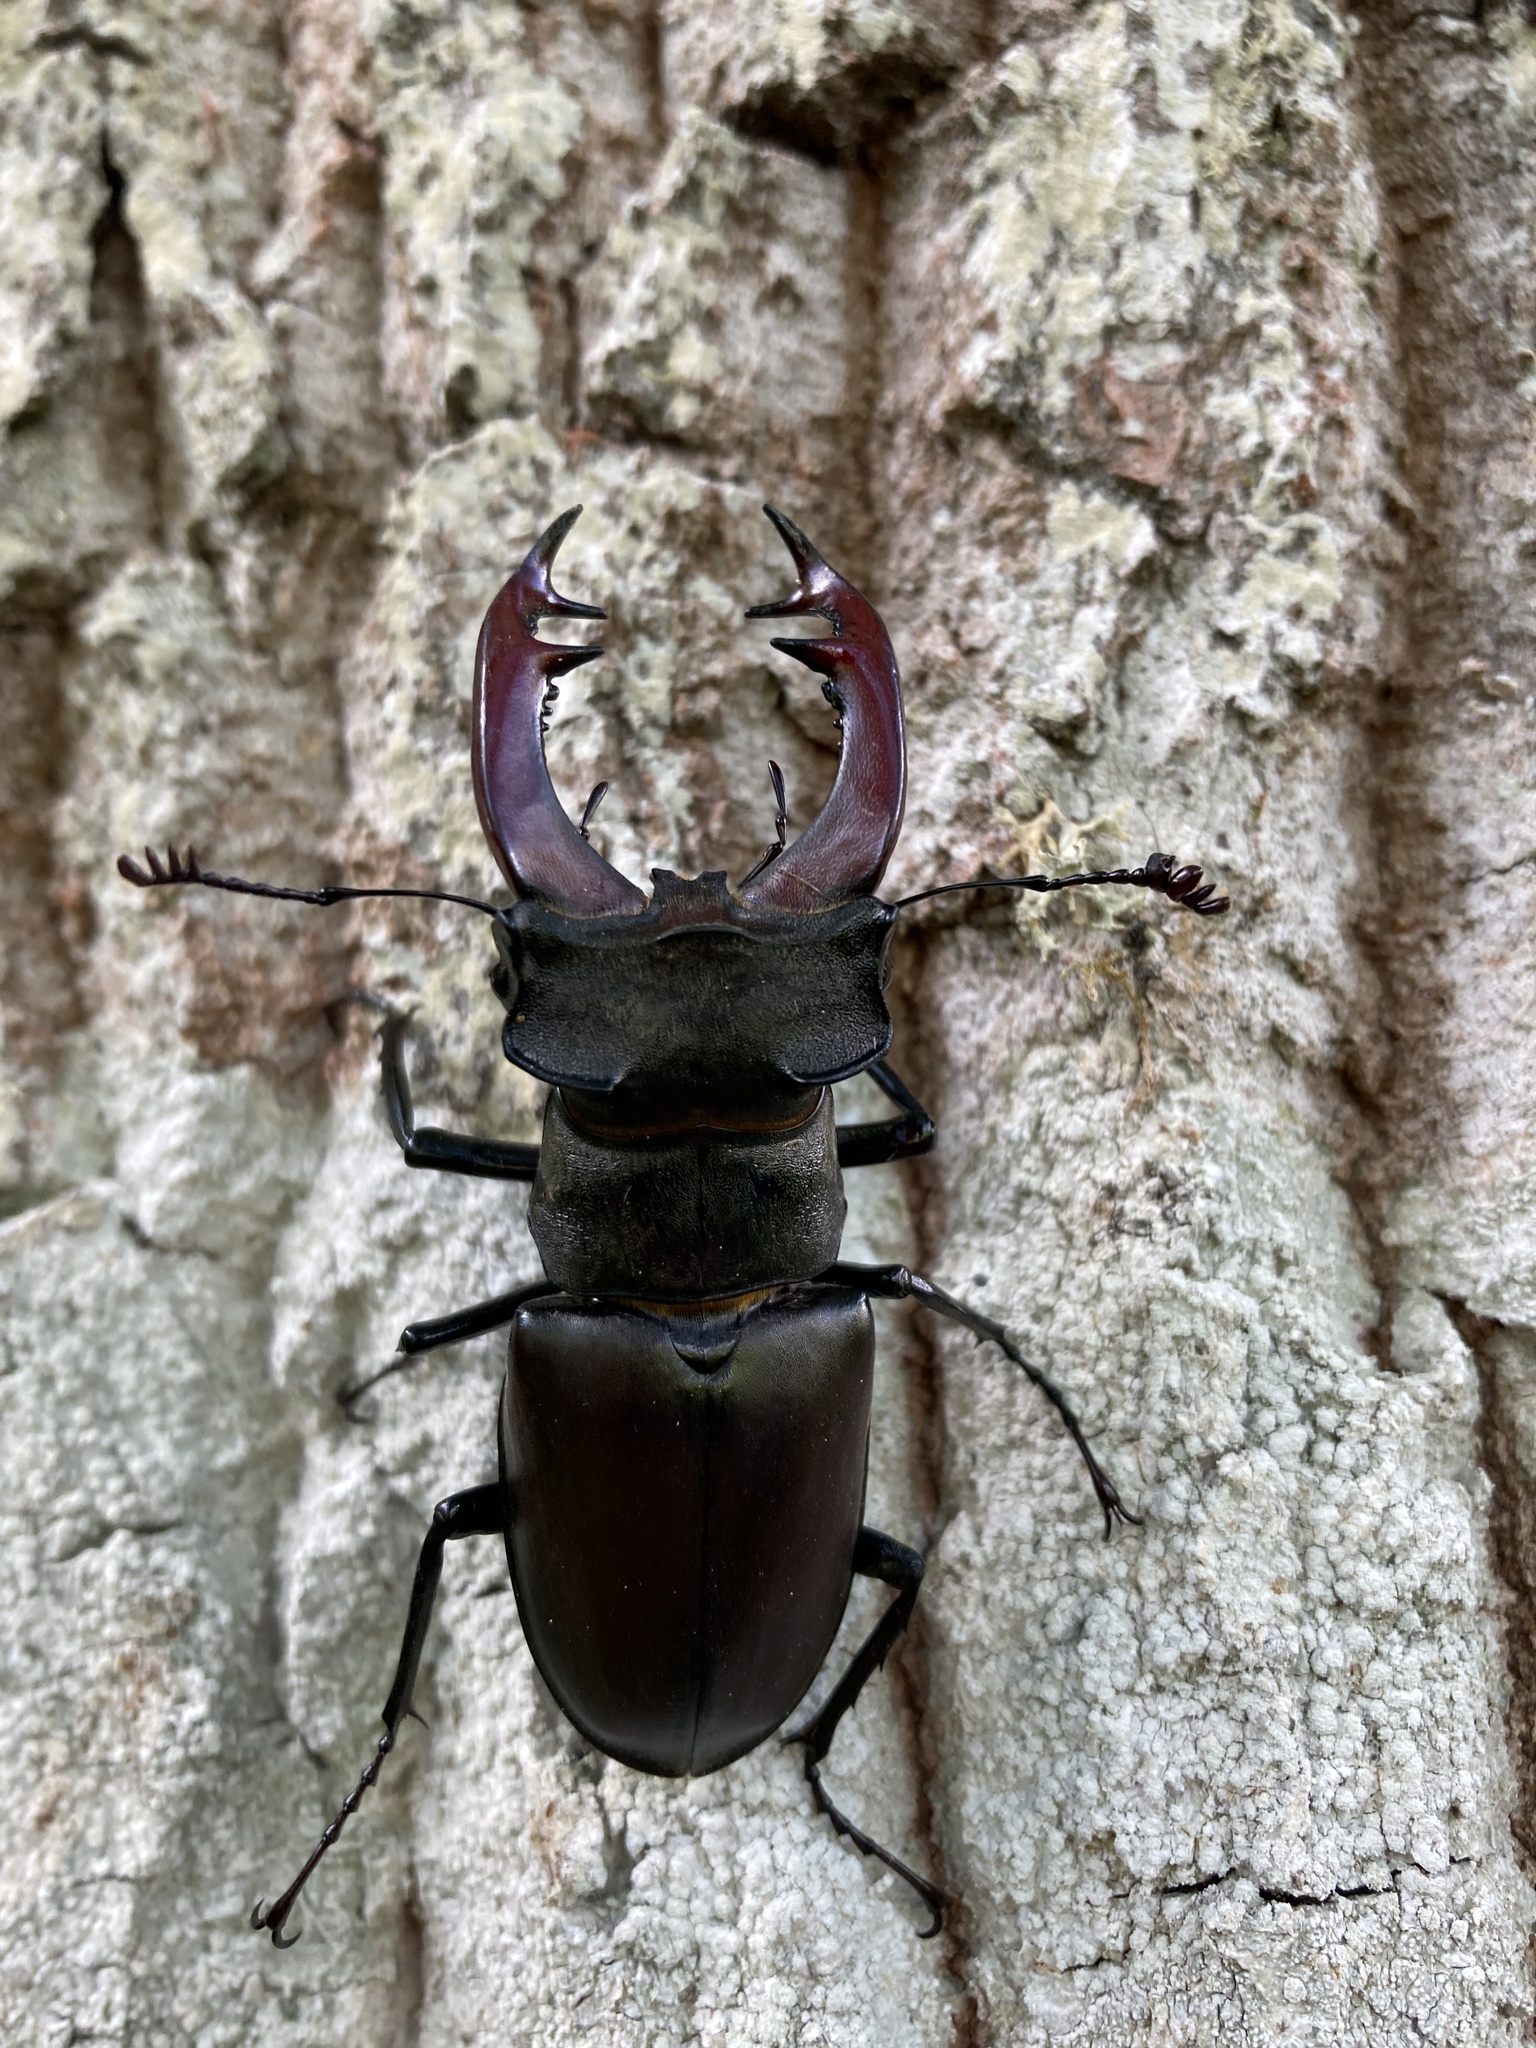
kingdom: Animalia
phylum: Arthropoda
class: Insecta
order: Coleoptera
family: Lucanidae
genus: Lucanus
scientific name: Lucanus cervus
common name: Stag beetle
